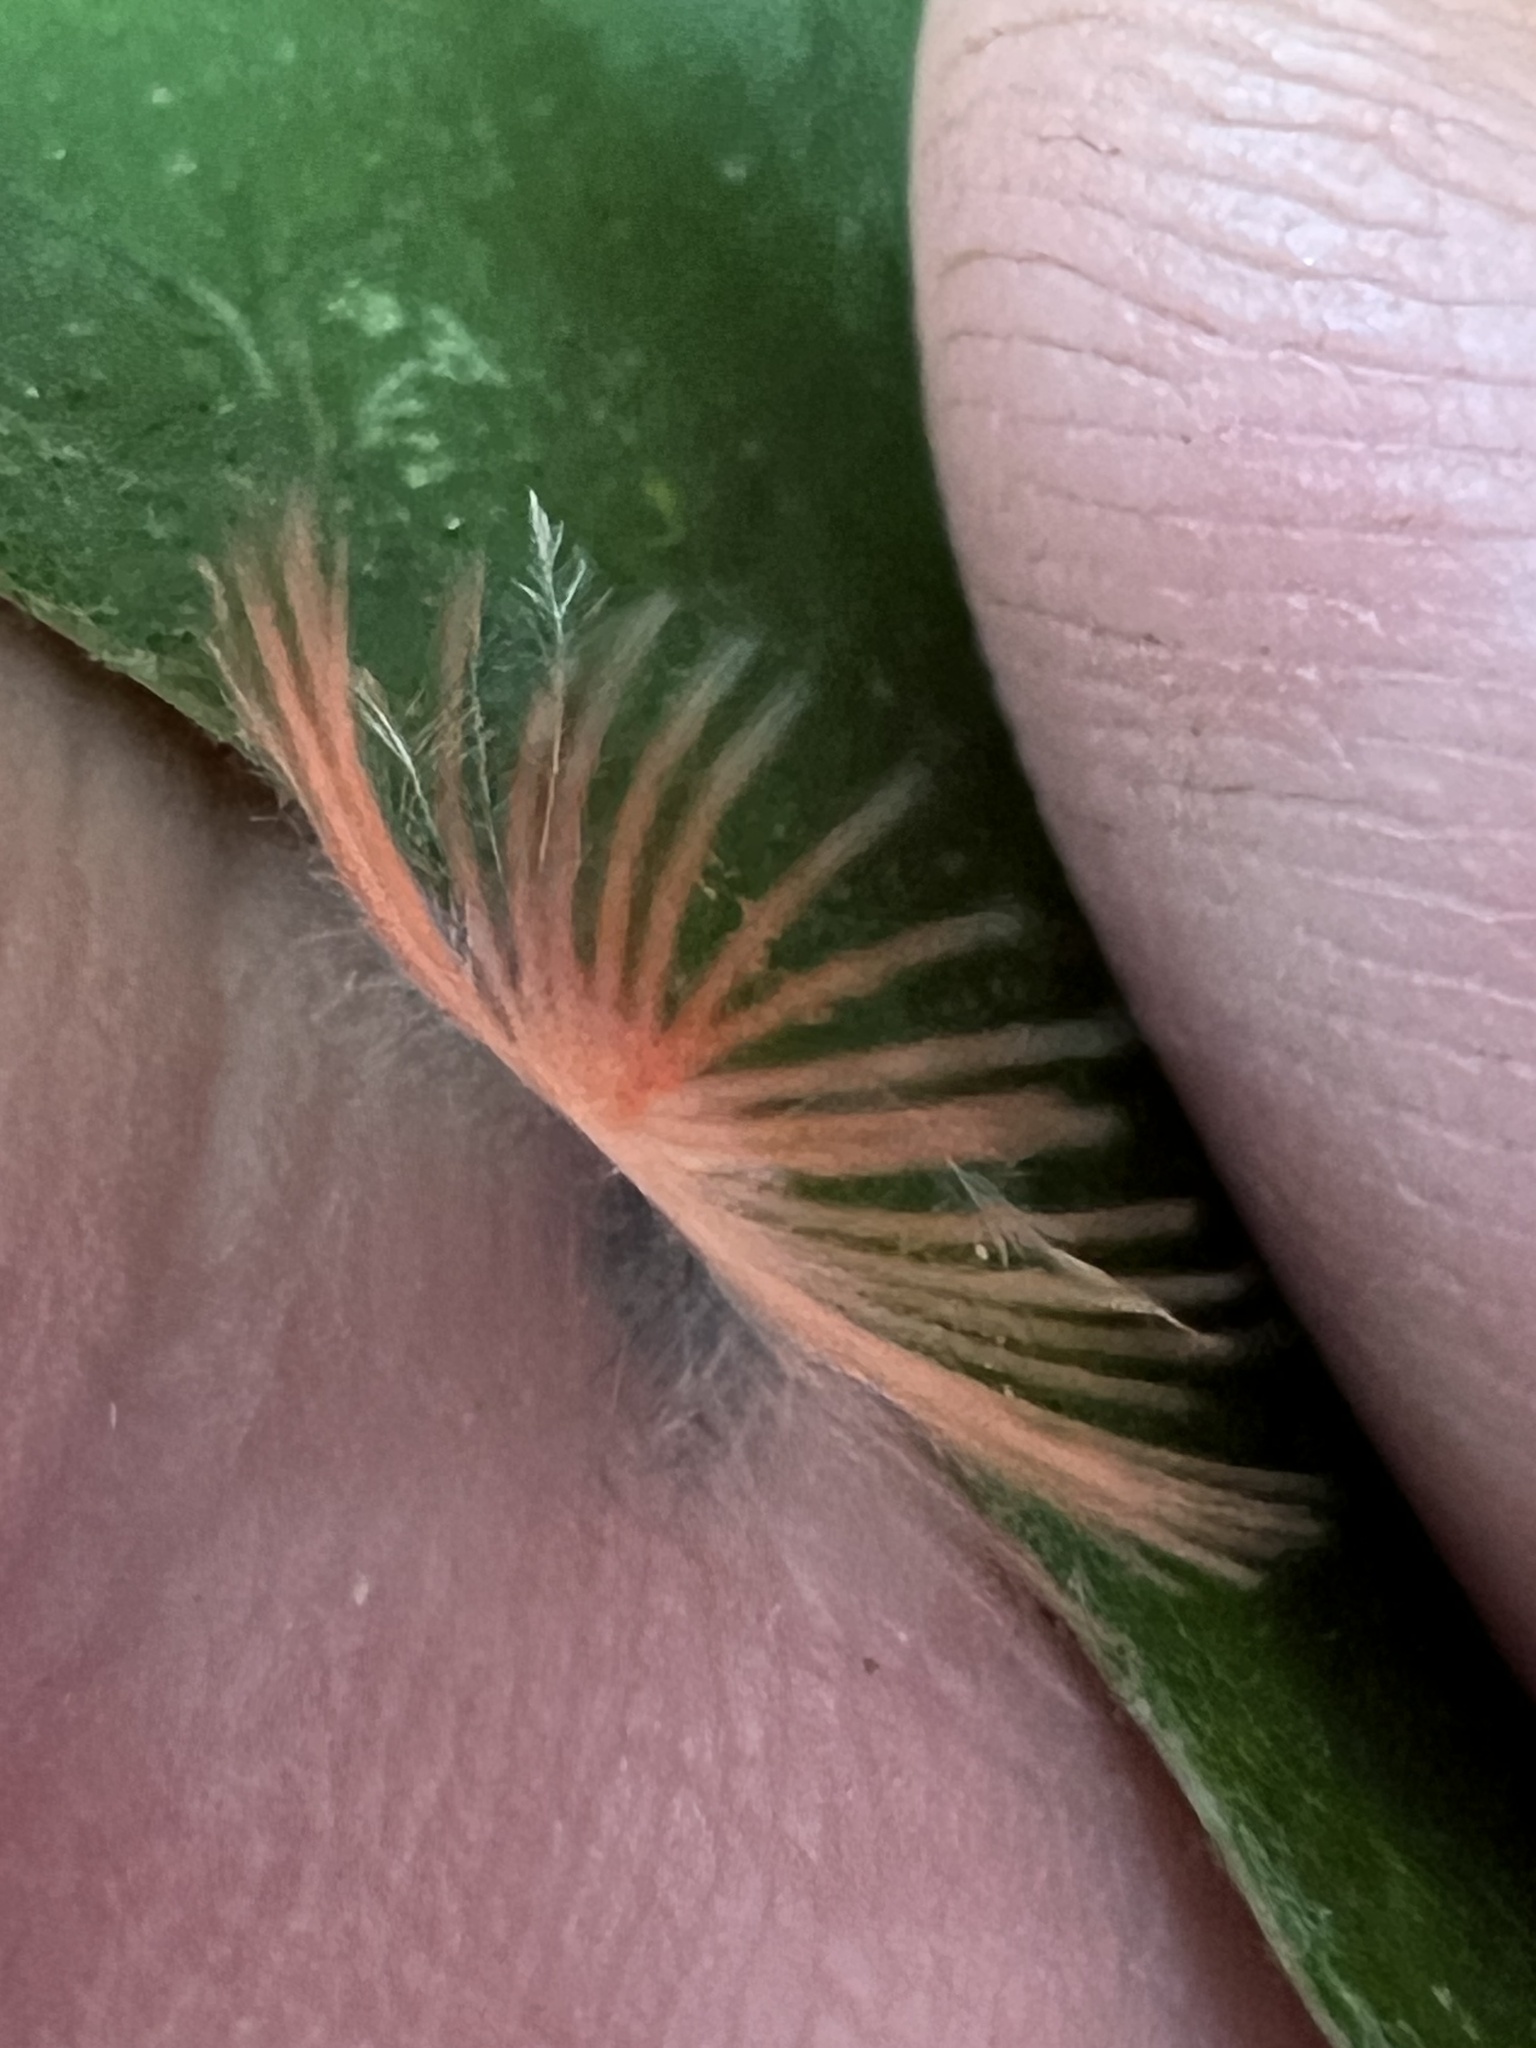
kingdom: Animalia
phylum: Chordata
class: Aves
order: Passeriformes
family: Cardinalidae
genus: Cardinalis
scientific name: Cardinalis cardinalis
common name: Northern cardinal
